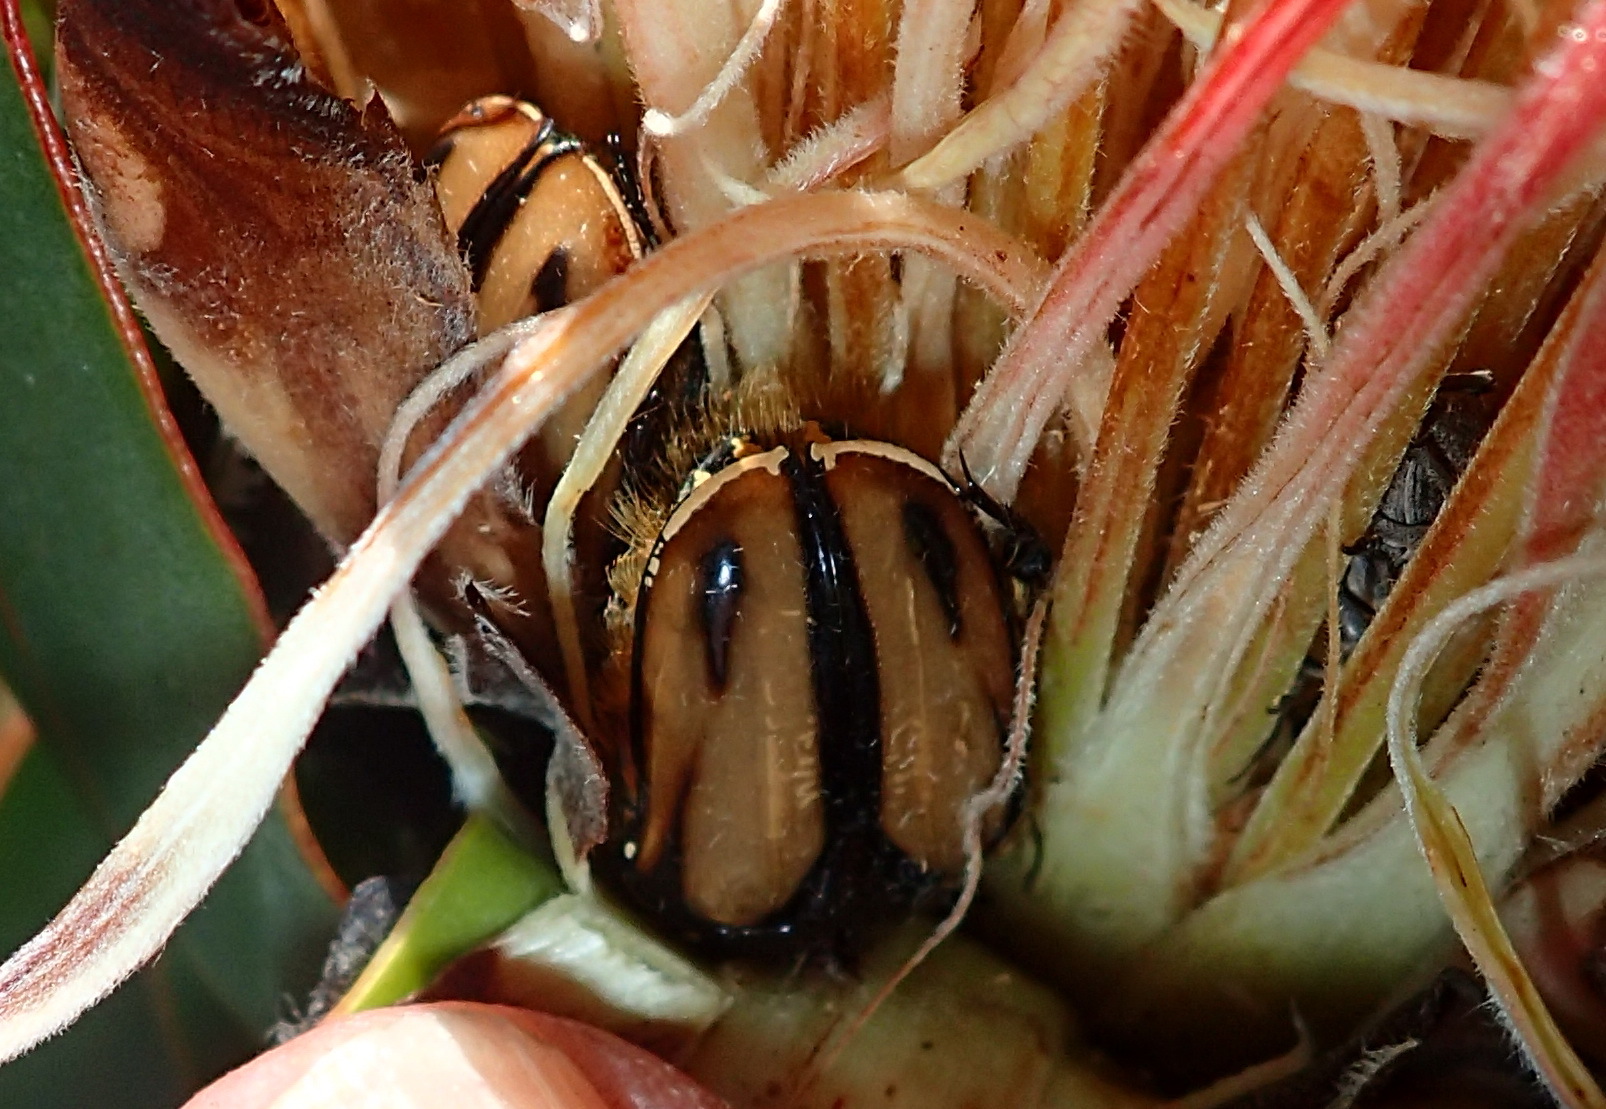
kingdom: Animalia
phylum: Arthropoda
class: Insecta
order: Coleoptera
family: Scarabaeidae
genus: Trichostetha
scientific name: Trichostetha signata
